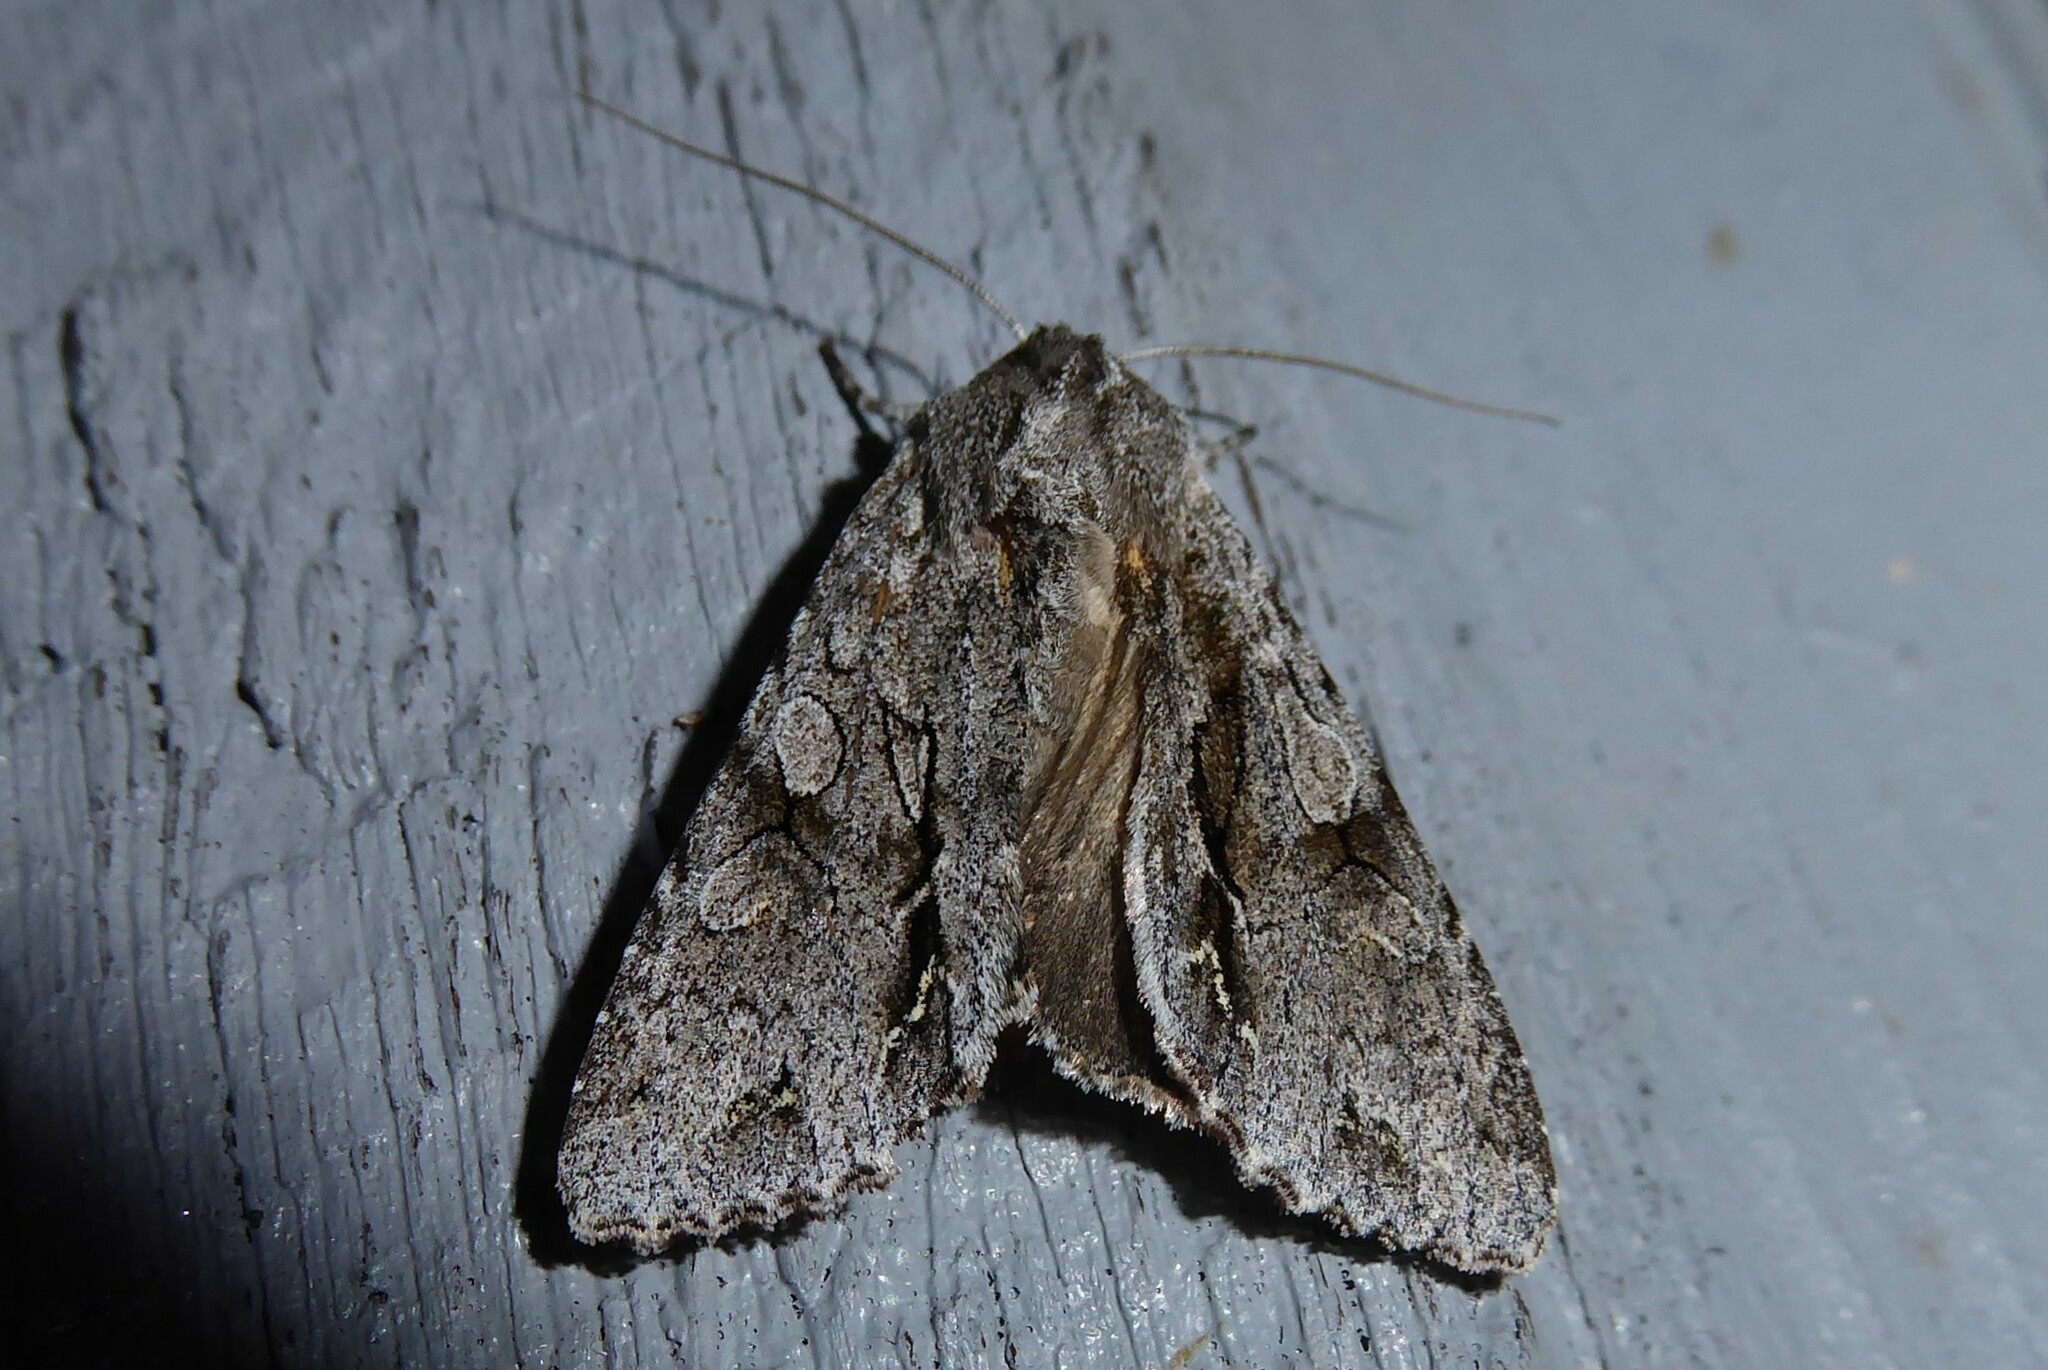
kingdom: Animalia
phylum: Arthropoda
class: Insecta
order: Lepidoptera
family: Noctuidae
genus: Ichneutica
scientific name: Ichneutica
